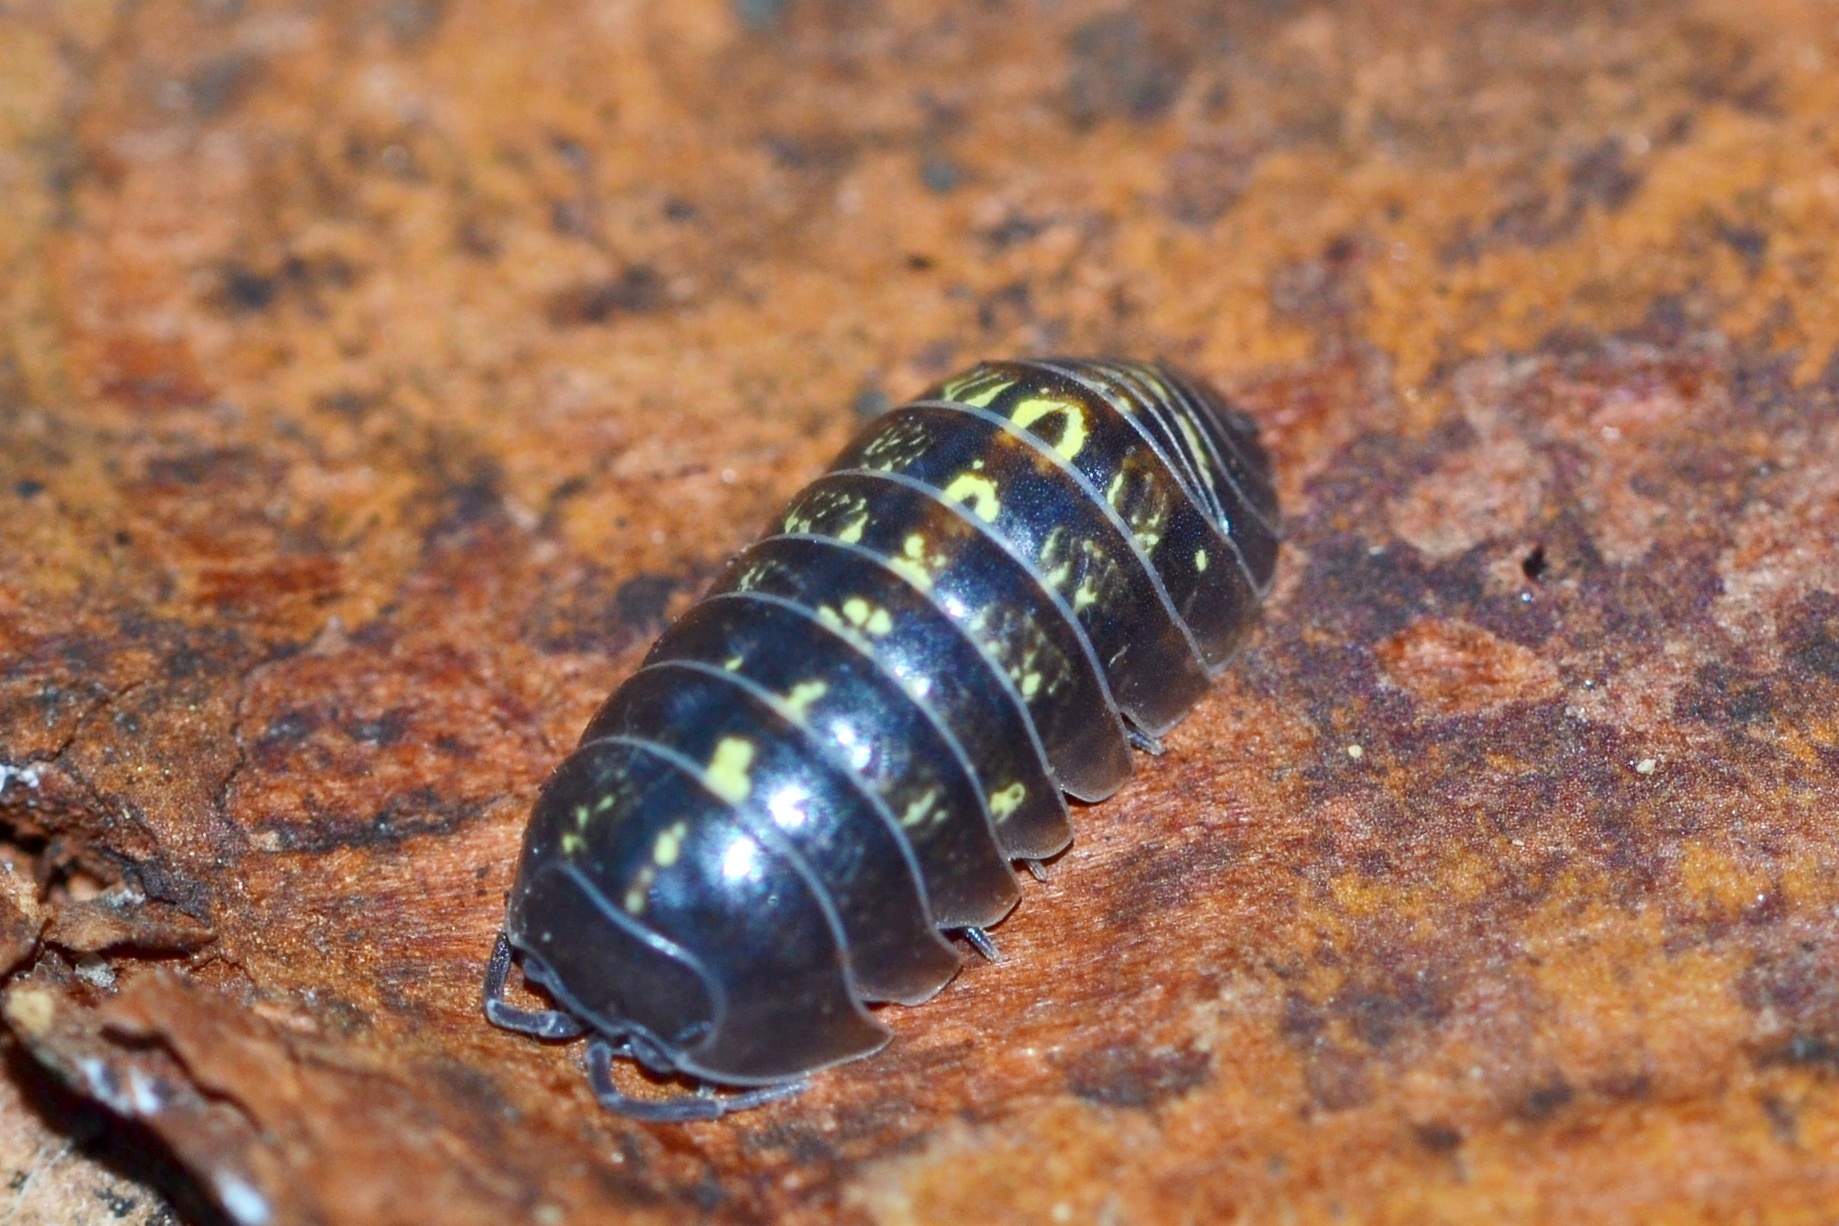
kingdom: Animalia
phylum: Arthropoda
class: Malacostraca
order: Isopoda
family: Armadillidiidae
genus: Armadillidium
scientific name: Armadillidium vulgare
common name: Common pill woodlouse
